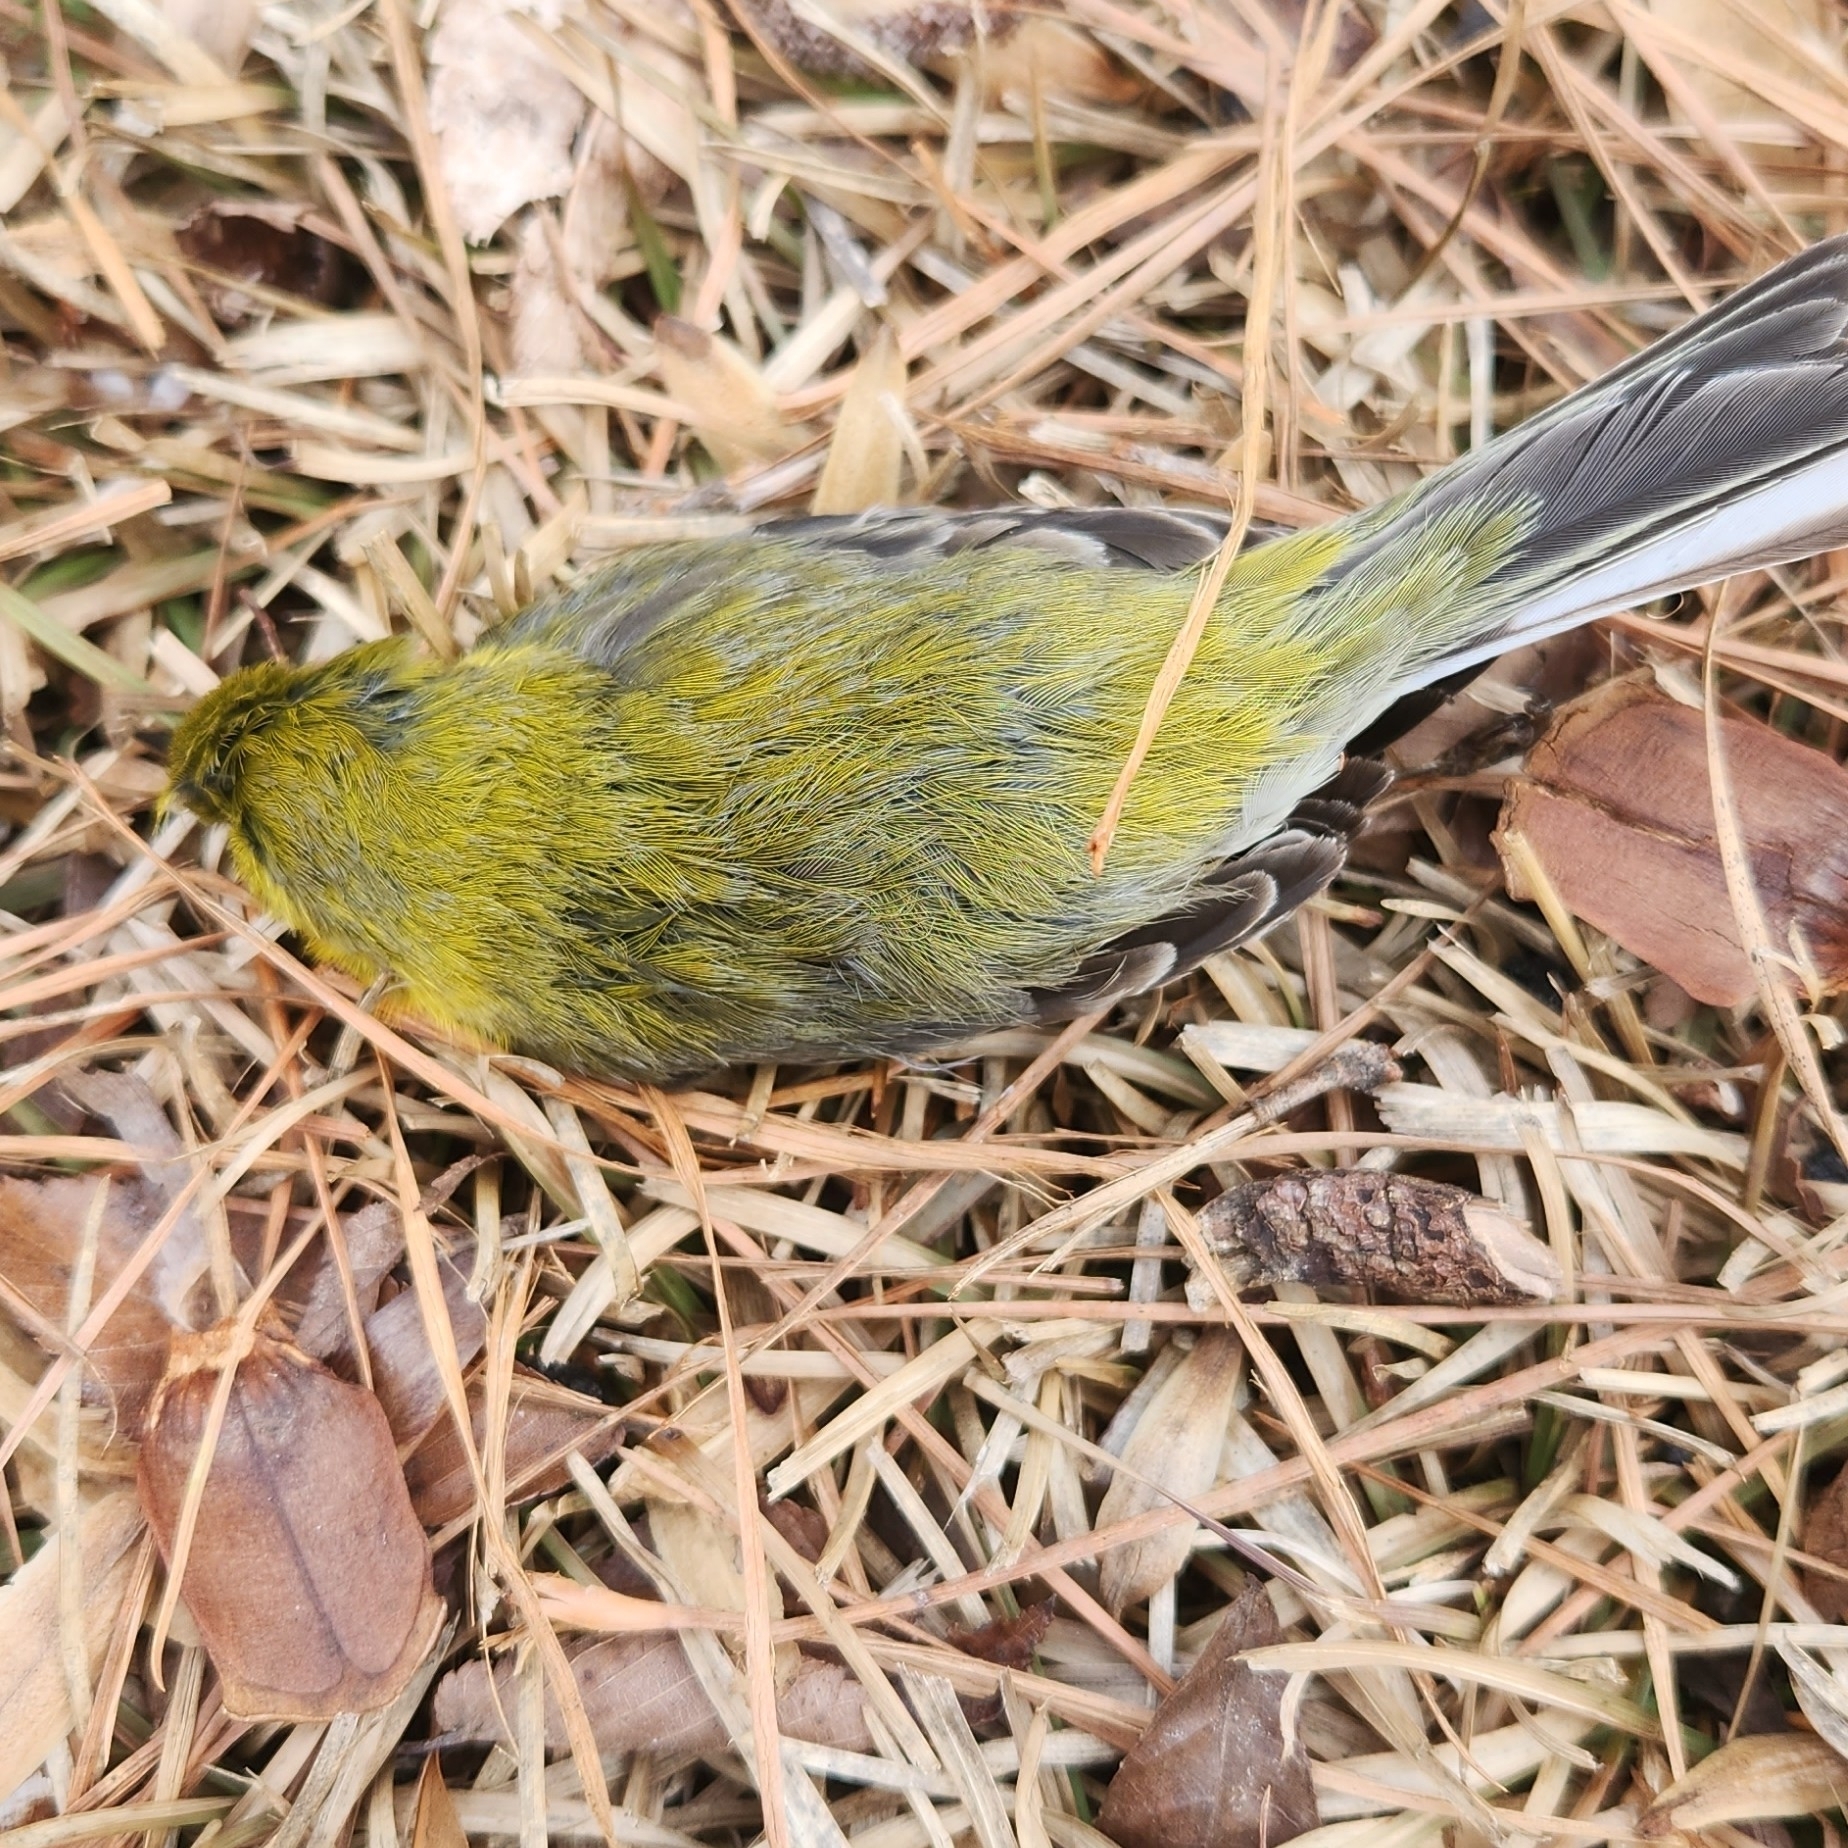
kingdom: Animalia
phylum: Chordata
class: Aves
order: Passeriformes
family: Parulidae
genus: Setophaga
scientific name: Setophaga pinus
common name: Pine warbler
